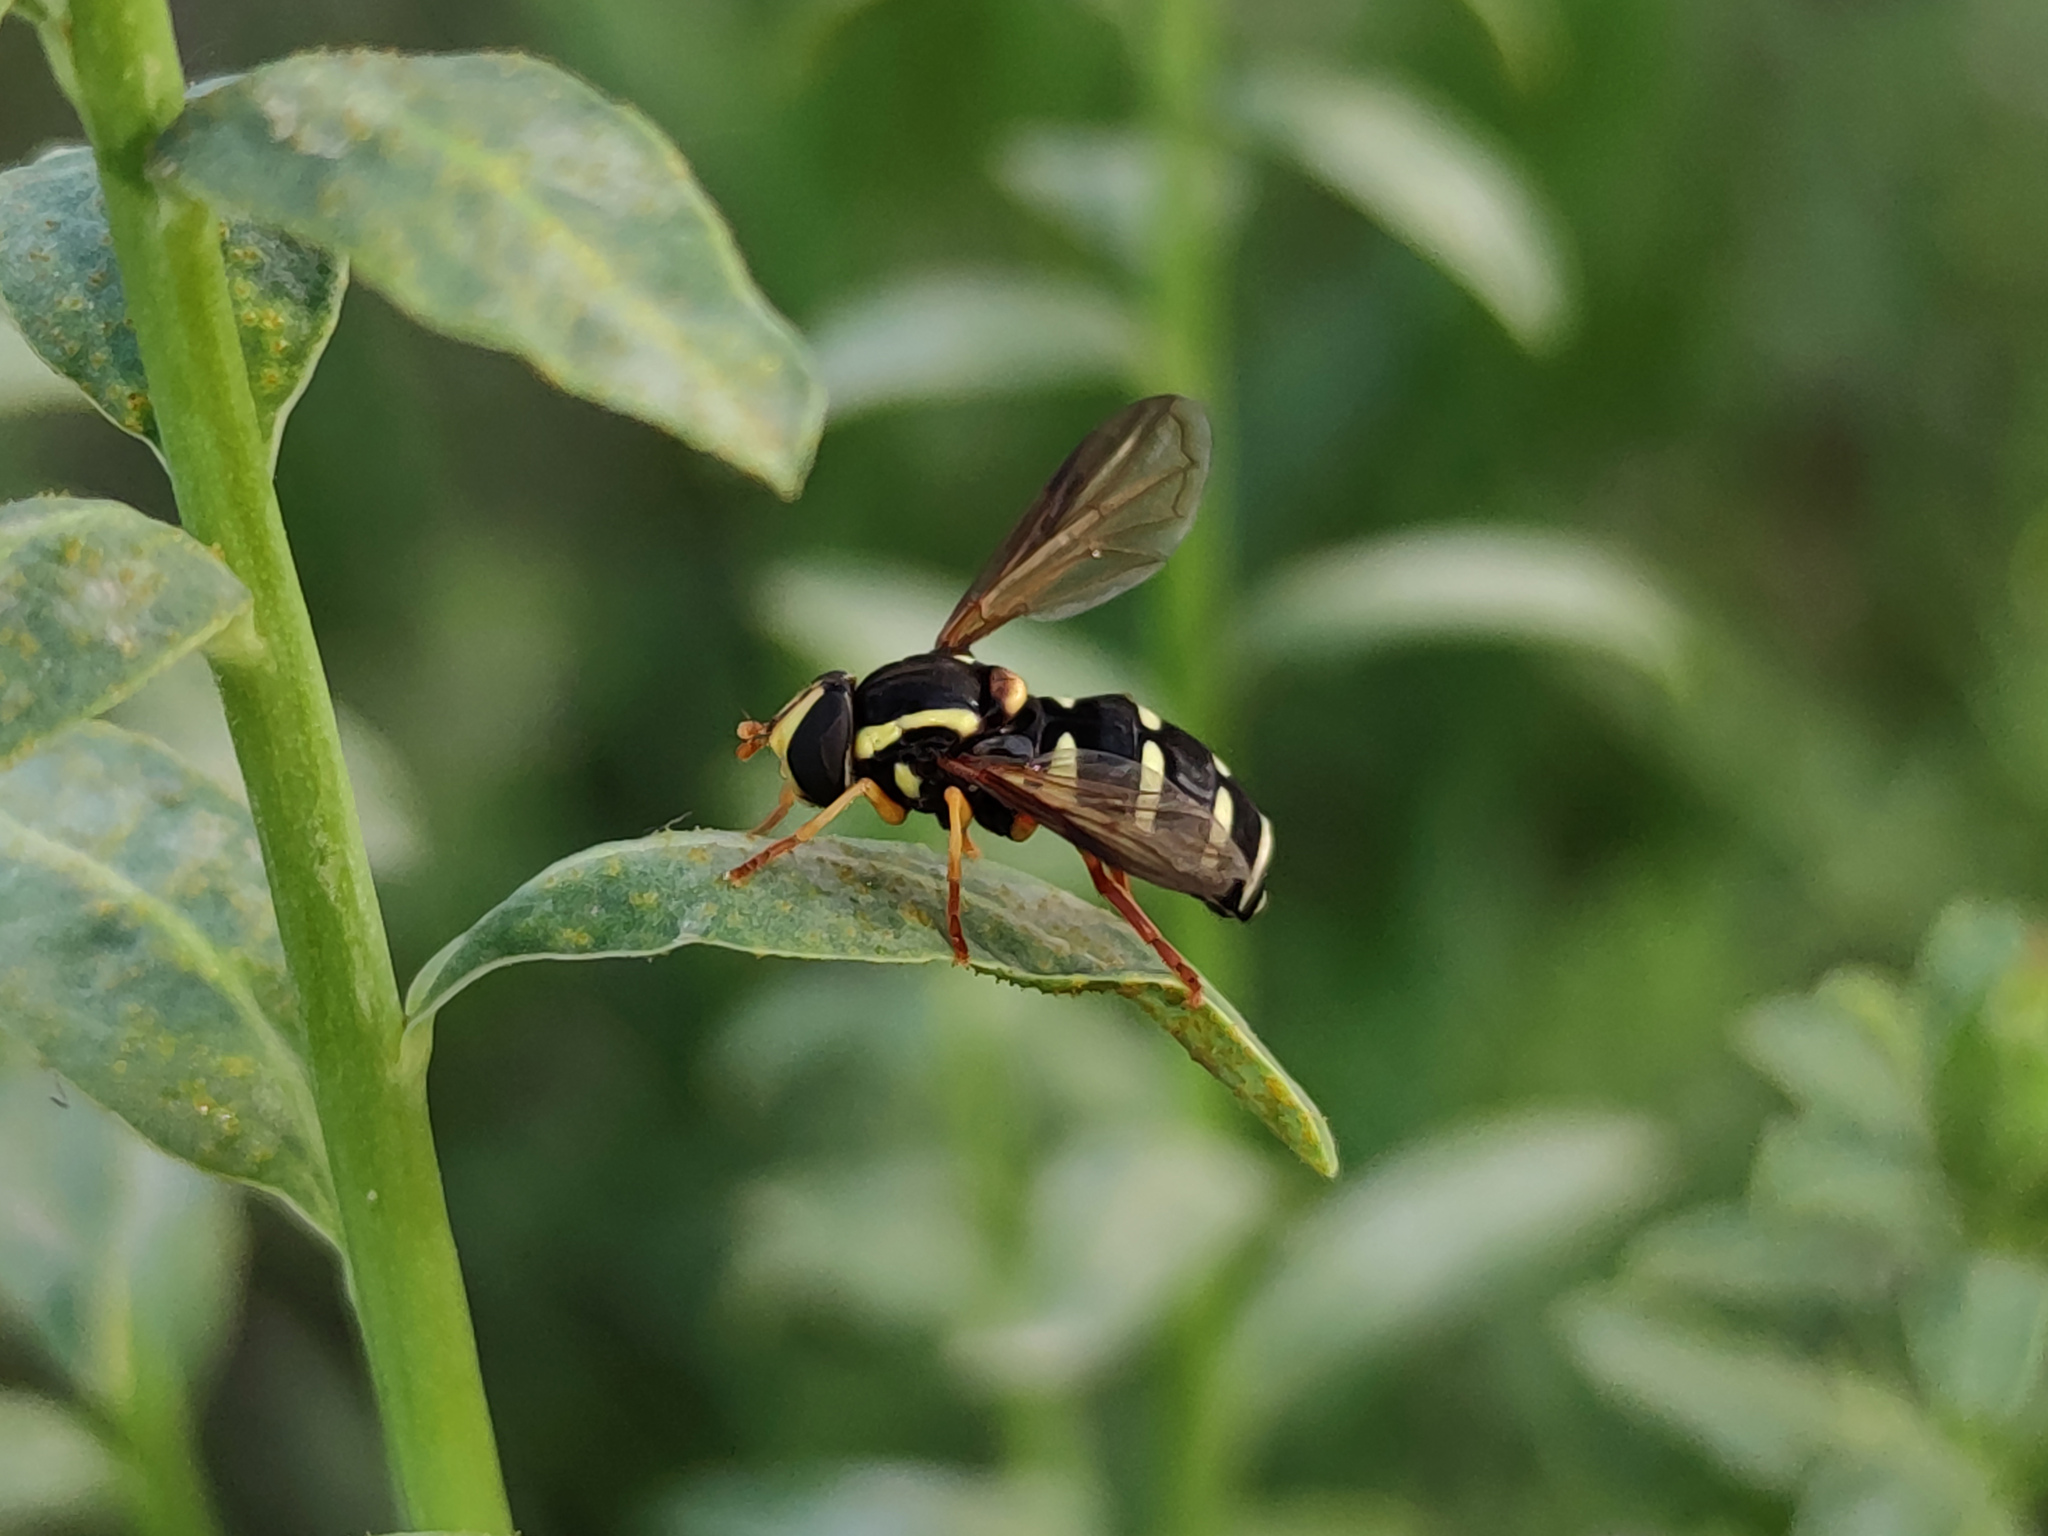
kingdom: Animalia
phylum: Arthropoda
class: Insecta
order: Diptera
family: Syrphidae
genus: Philhelius
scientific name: Philhelius citrofasciata
